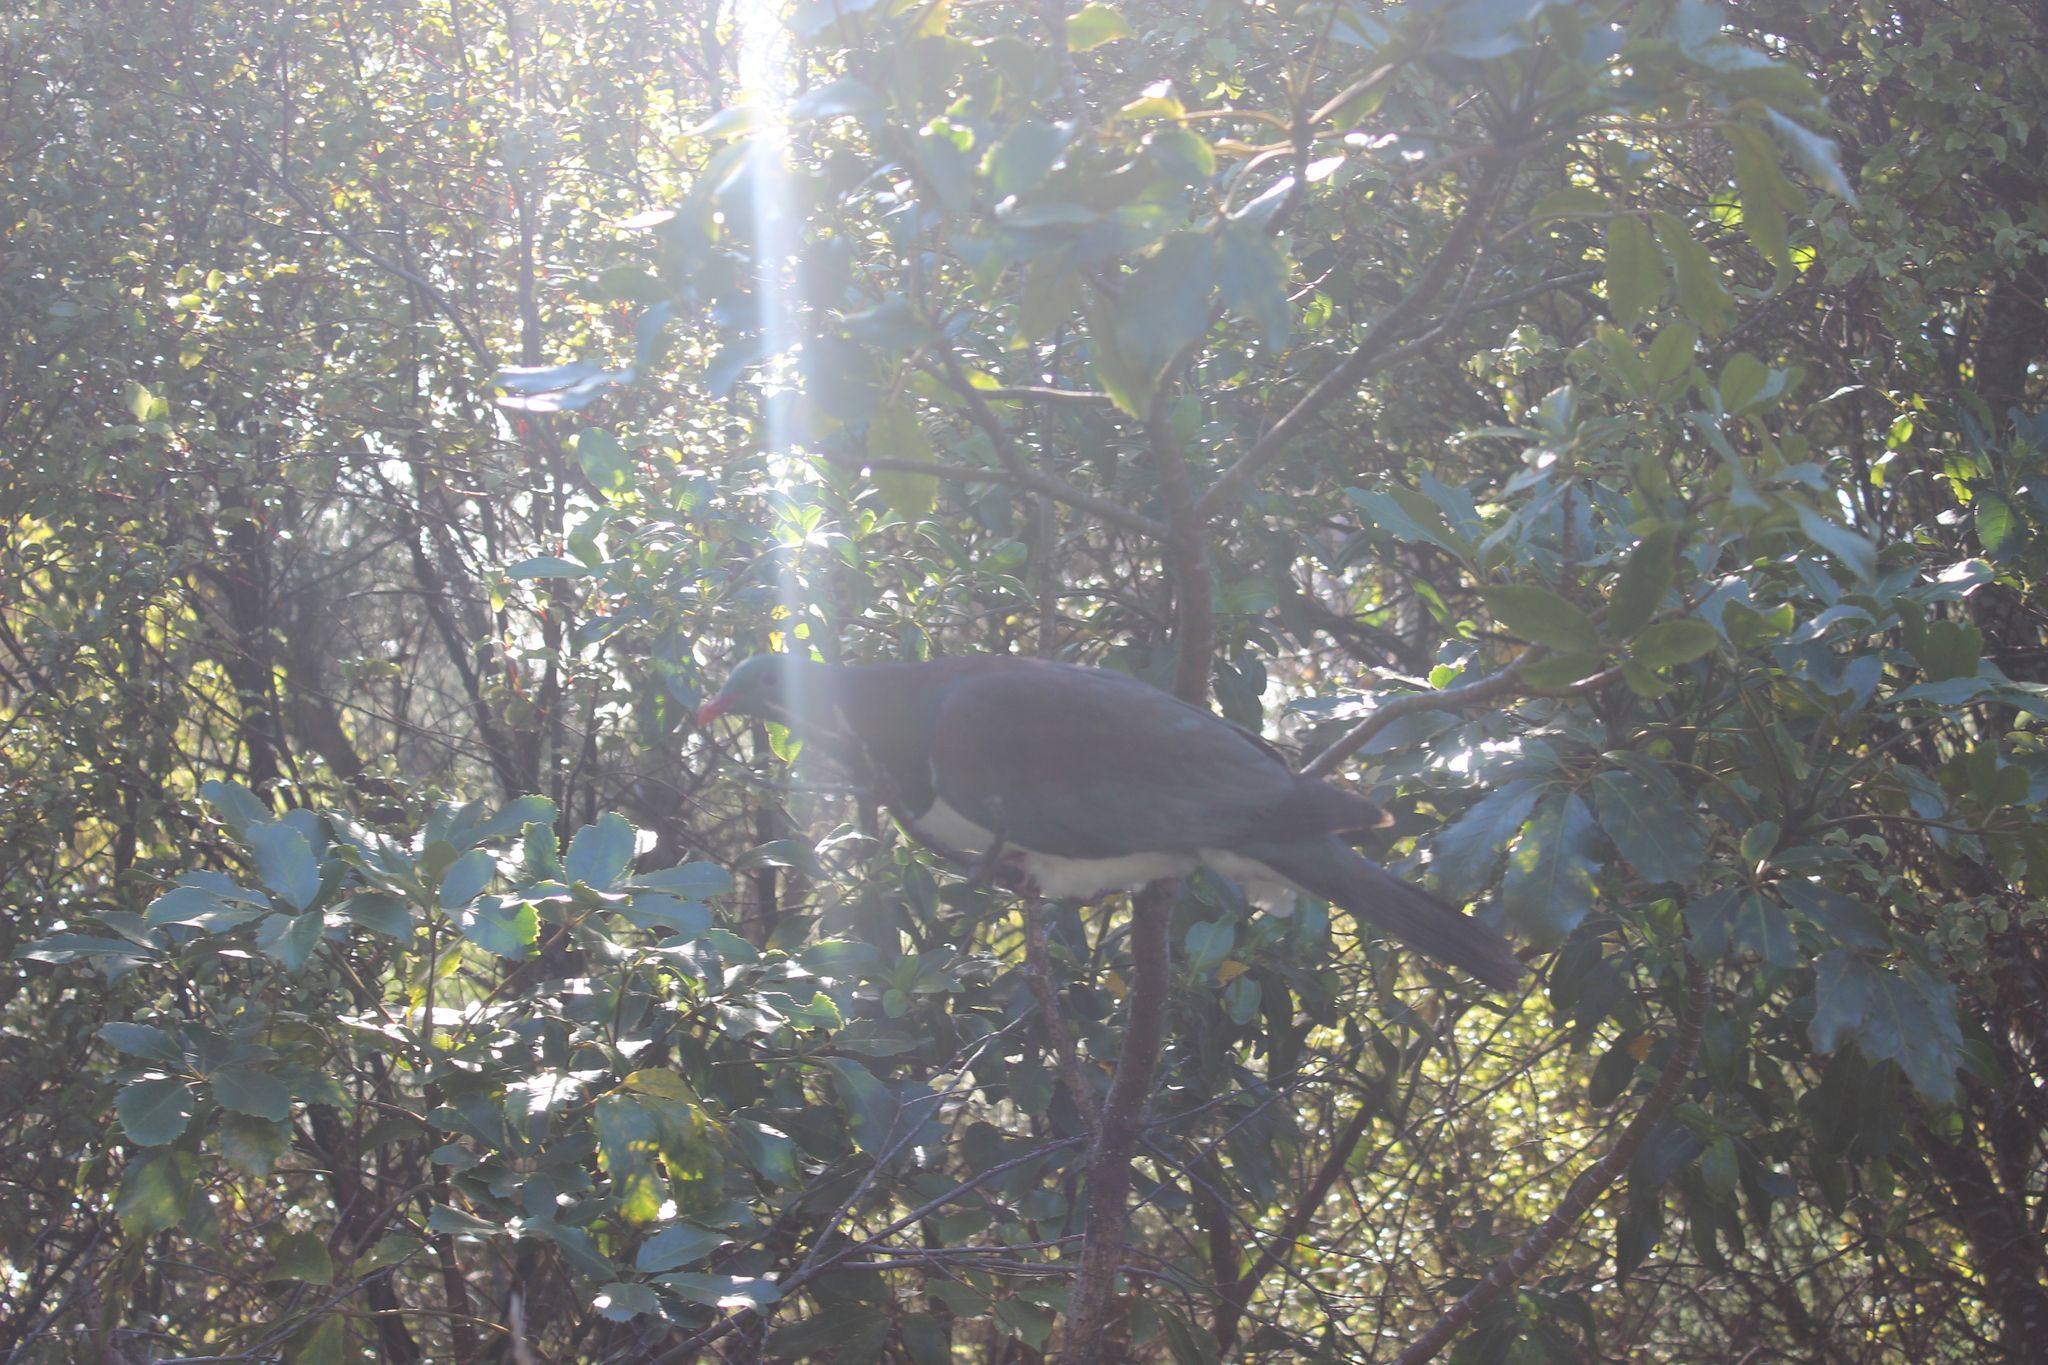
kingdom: Animalia
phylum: Chordata
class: Aves
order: Columbiformes
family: Columbidae
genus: Hemiphaga
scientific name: Hemiphaga novaeseelandiae
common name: New zealand pigeon
